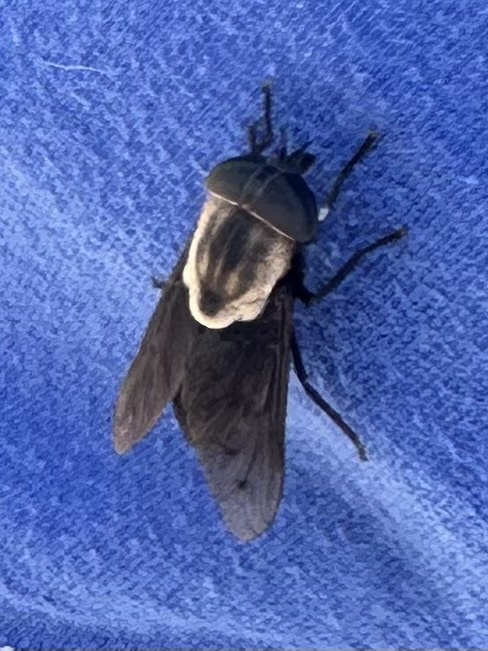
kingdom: Animalia
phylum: Arthropoda
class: Insecta
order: Diptera
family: Tabanidae
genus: Tabanus
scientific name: Tabanus punctifer
